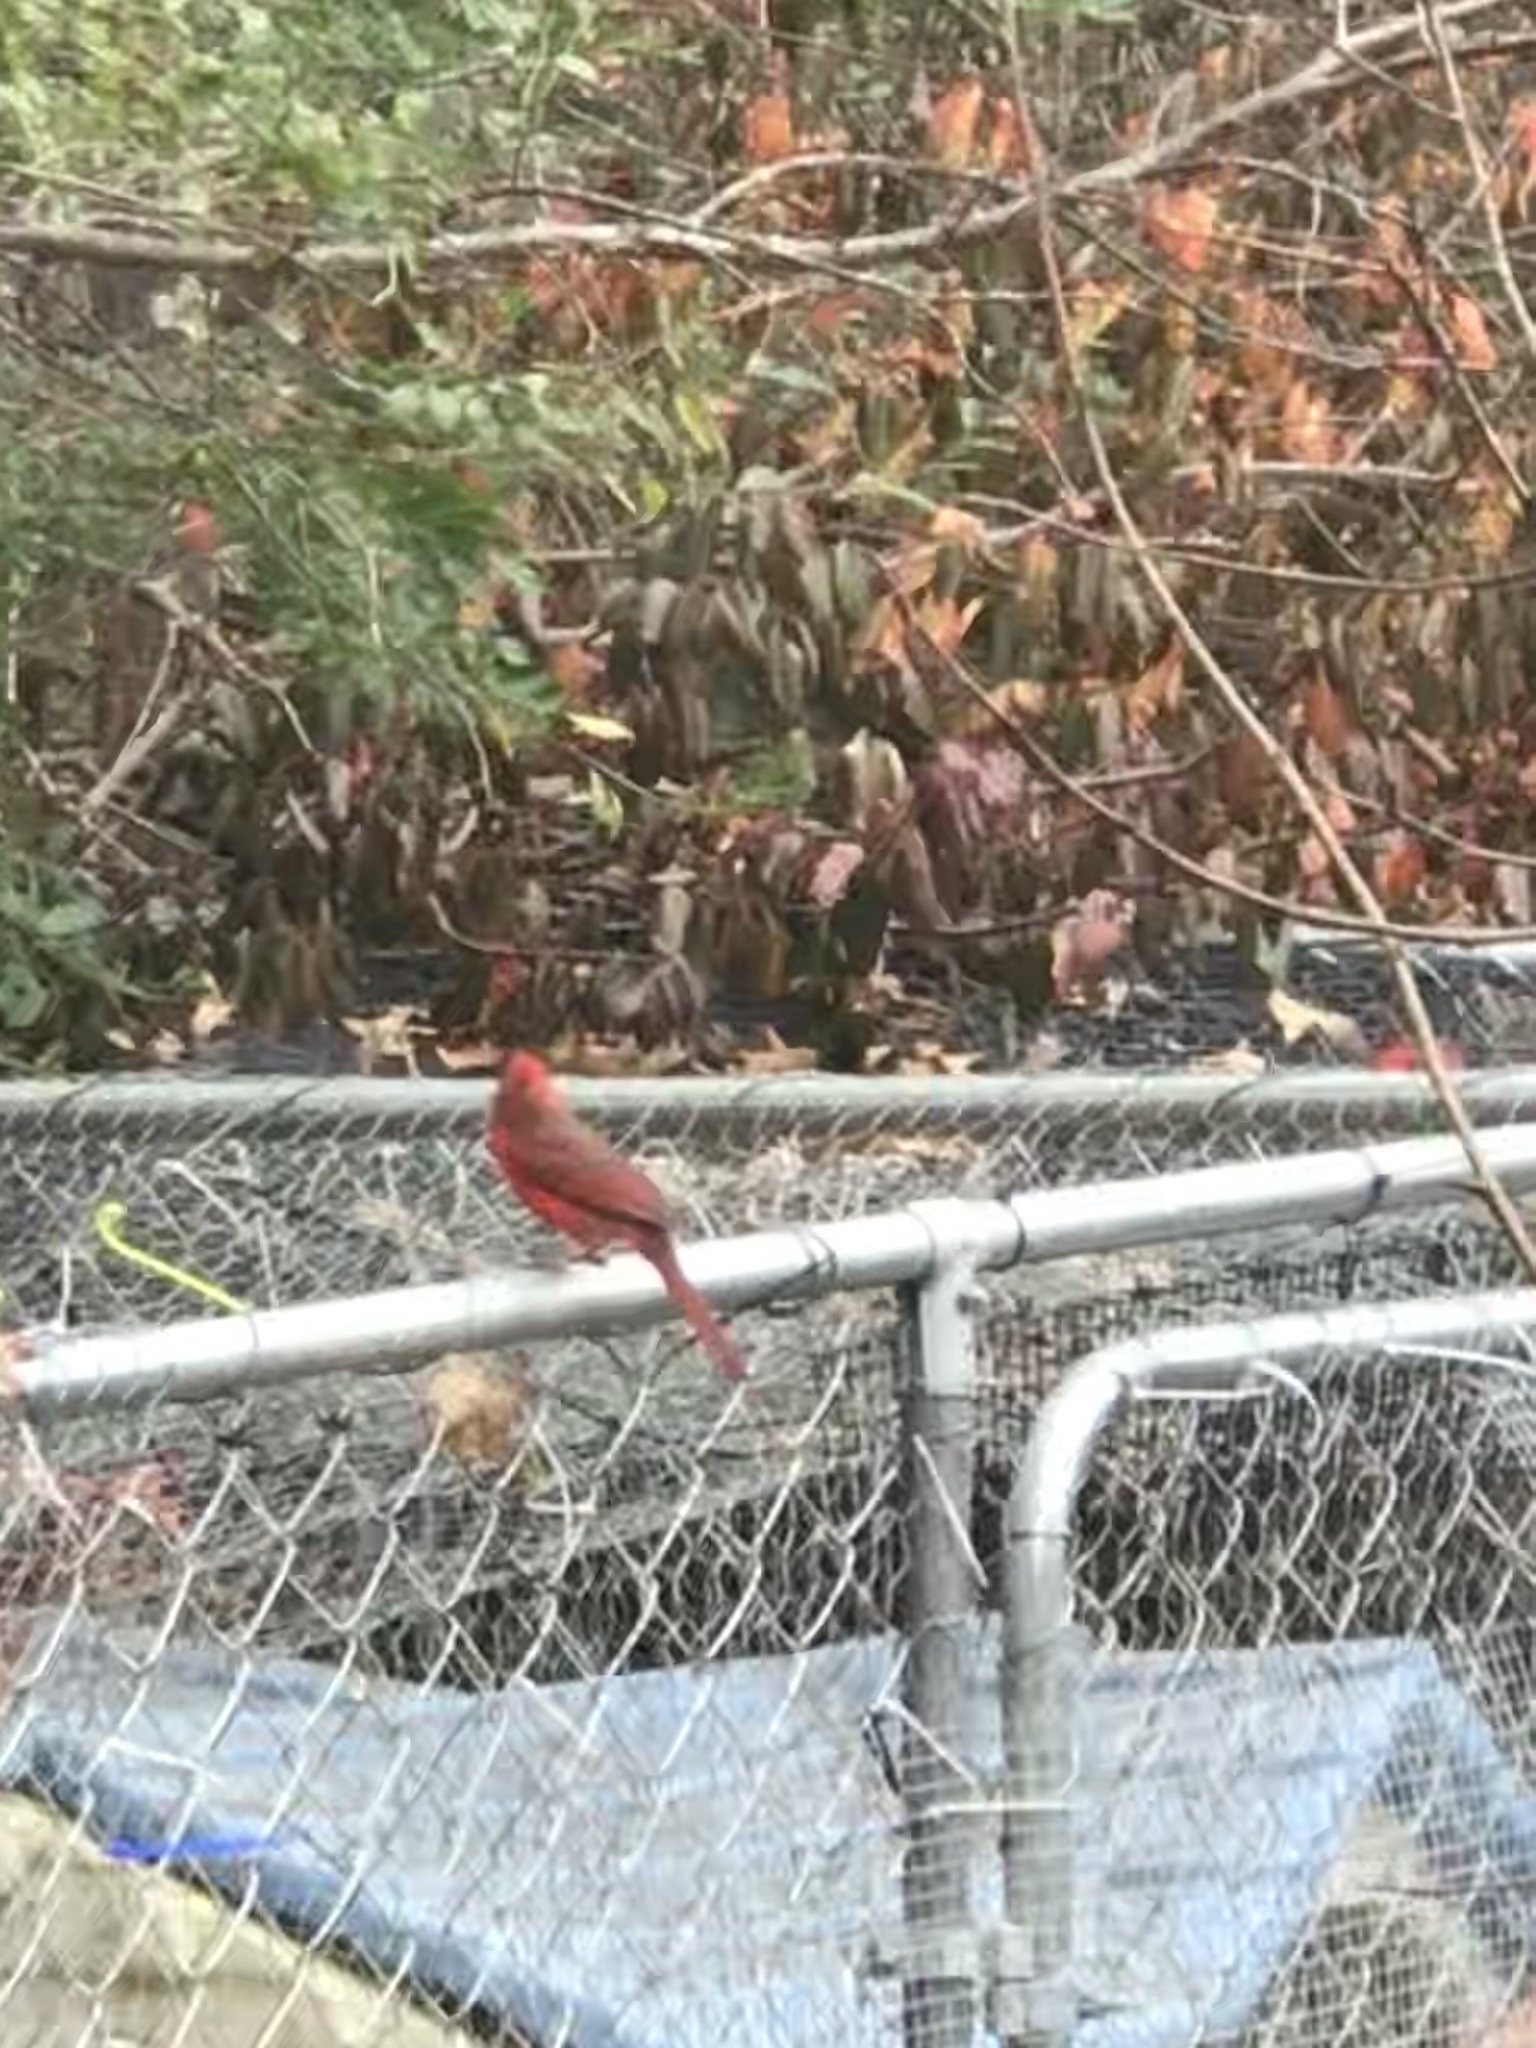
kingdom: Animalia
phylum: Chordata
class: Aves
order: Passeriformes
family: Cardinalidae
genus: Cardinalis
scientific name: Cardinalis cardinalis
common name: Northern cardinal
